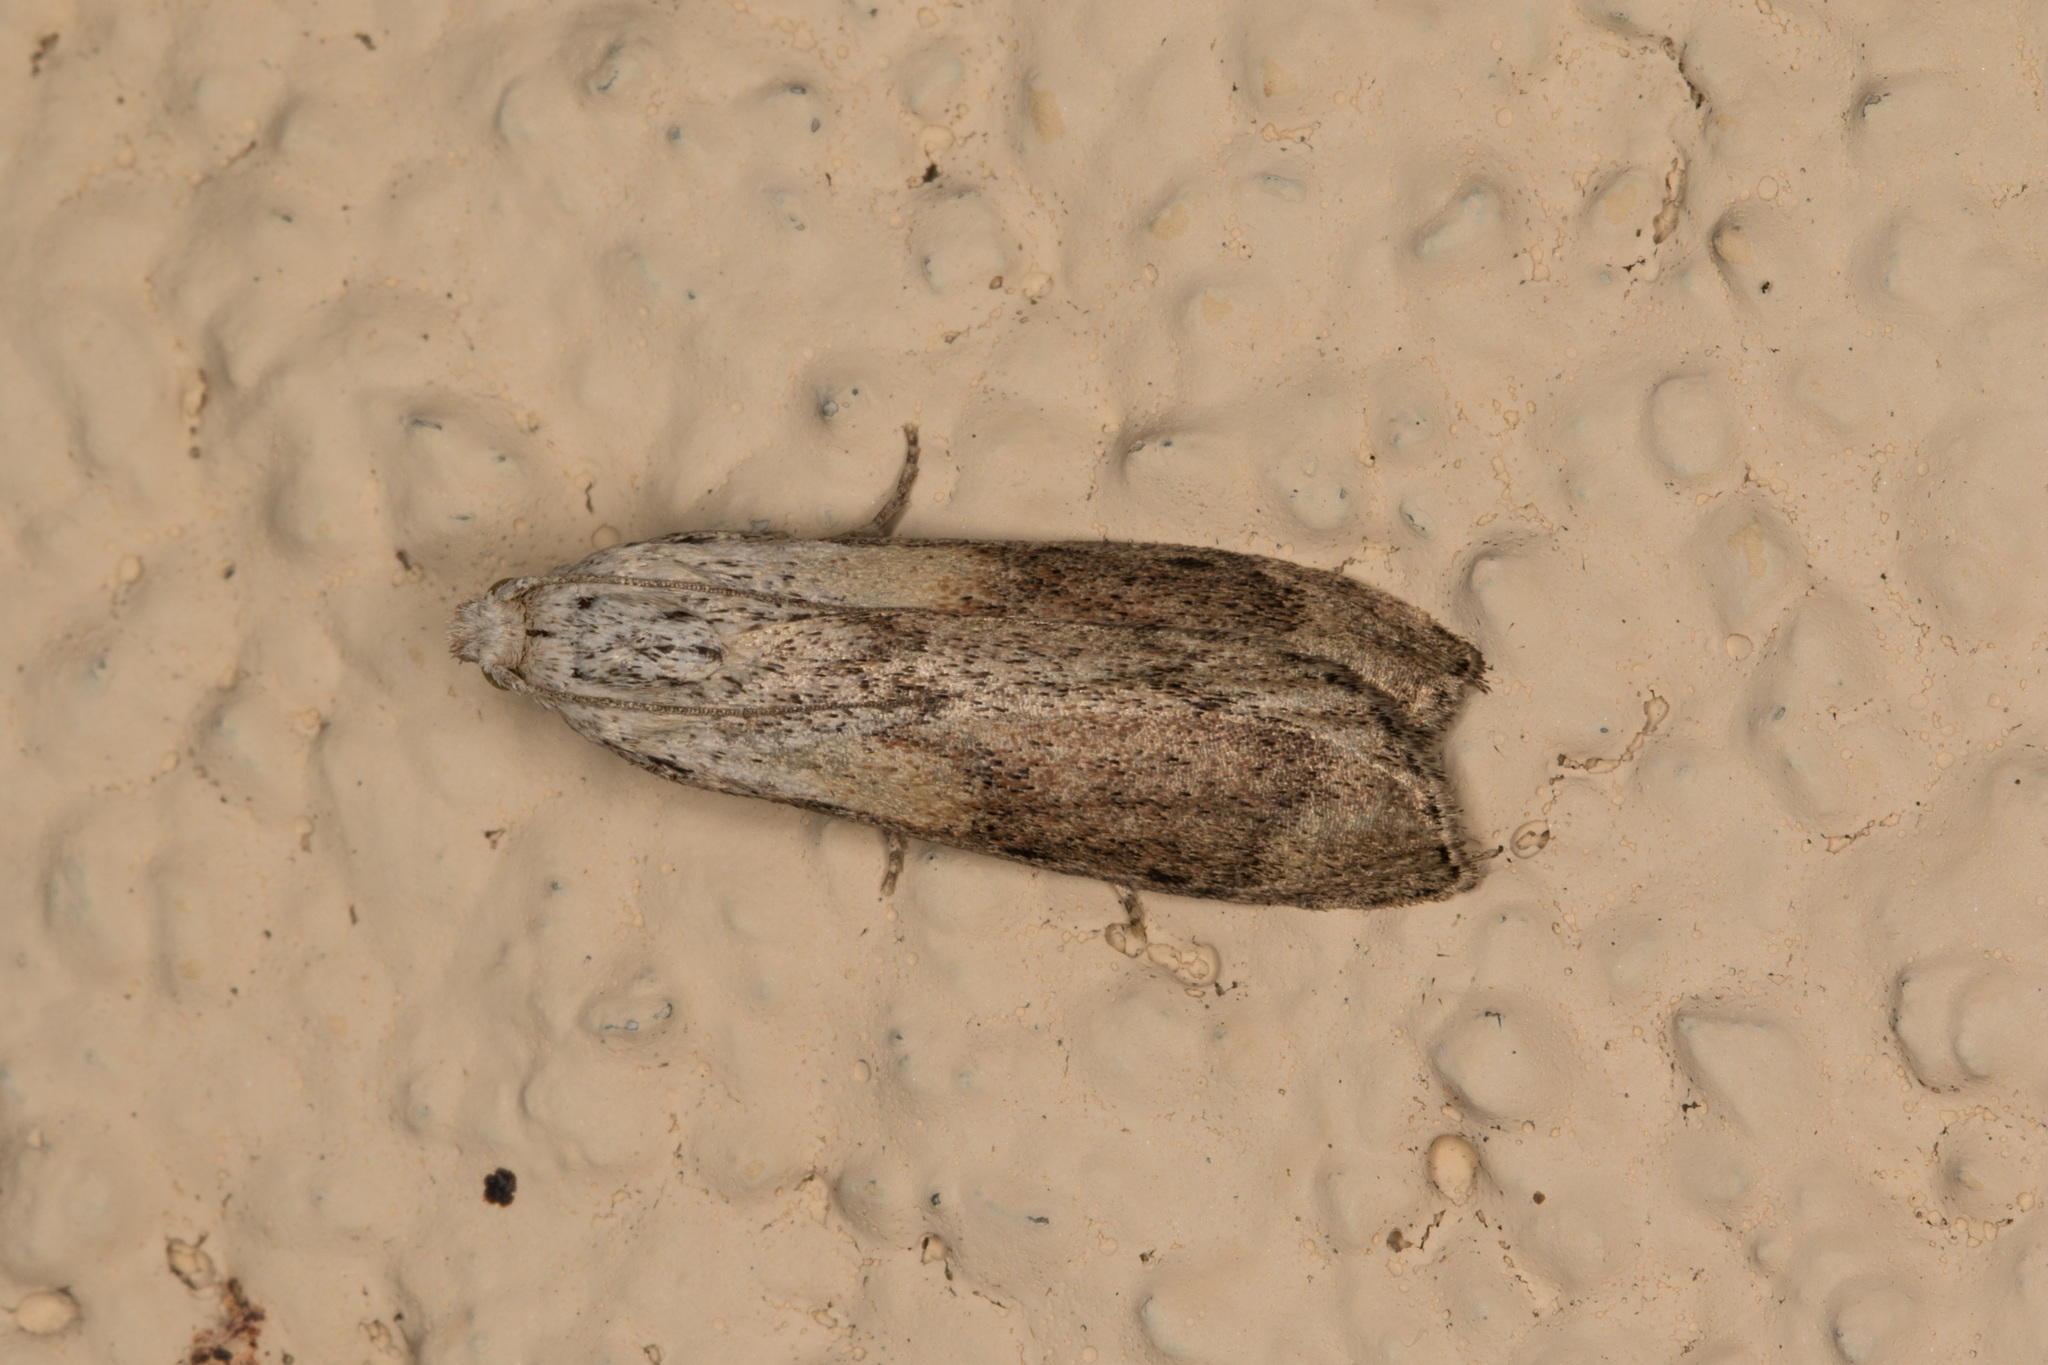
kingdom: Animalia
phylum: Arthropoda
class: Insecta
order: Lepidoptera
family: Pyralidae
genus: Aphomia
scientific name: Aphomia sociella
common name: Bee moth
